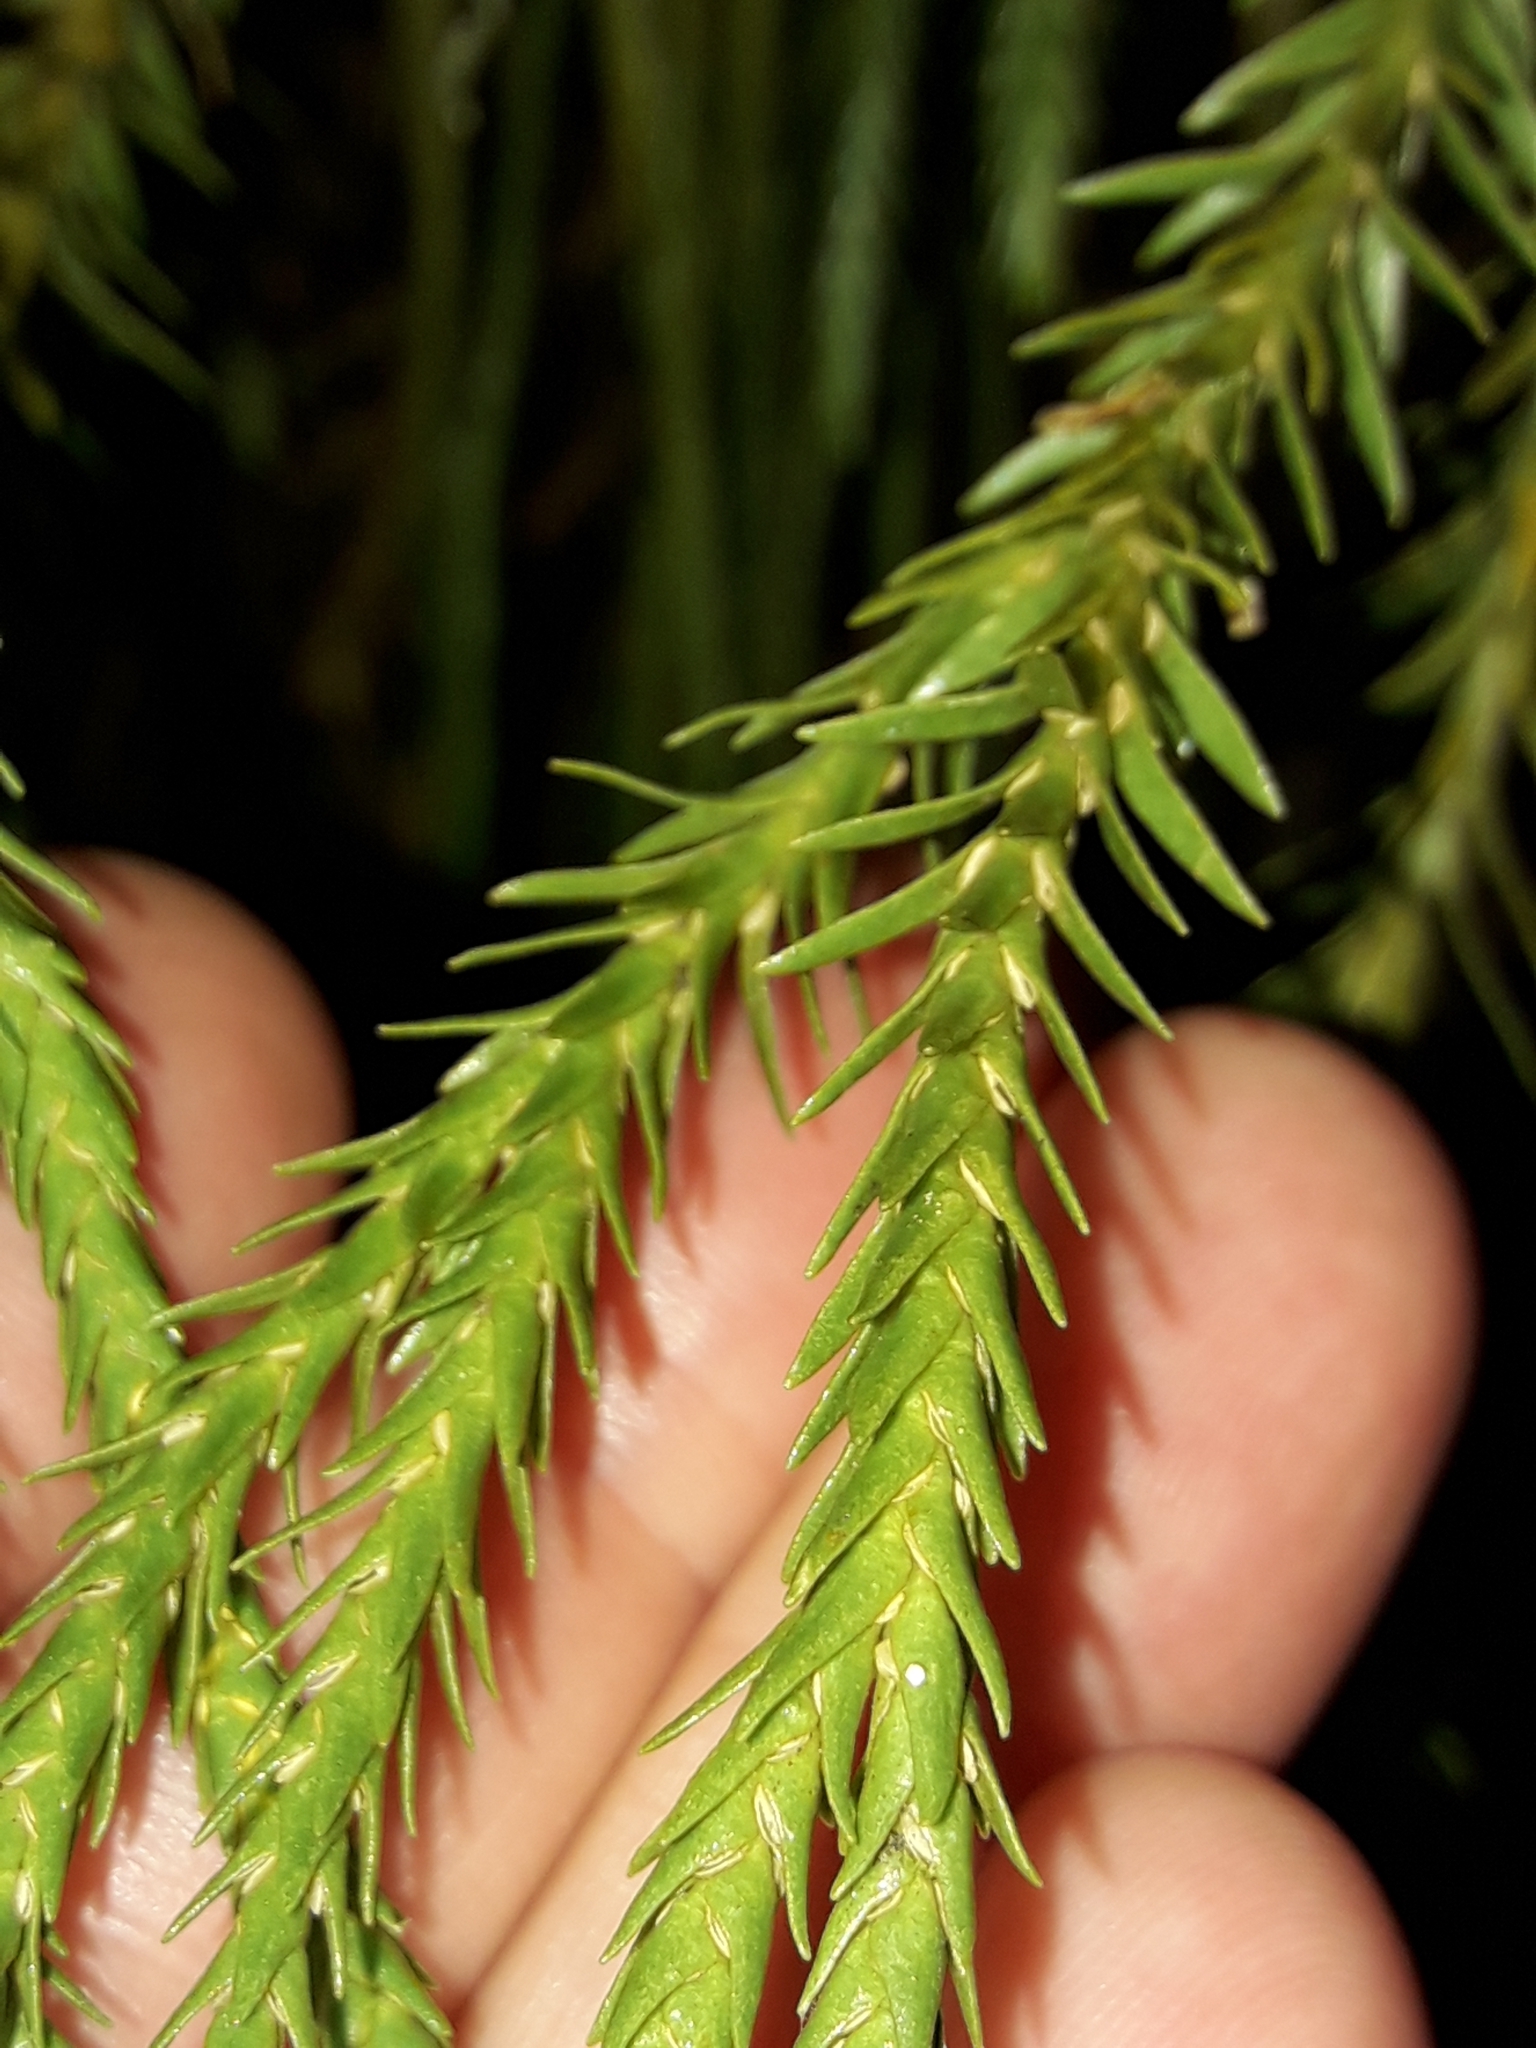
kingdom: Plantae
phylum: Tracheophyta
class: Lycopodiopsida
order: Lycopodiales
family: Lycopodiaceae
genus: Phlegmariurus
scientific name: Phlegmariurus varius
